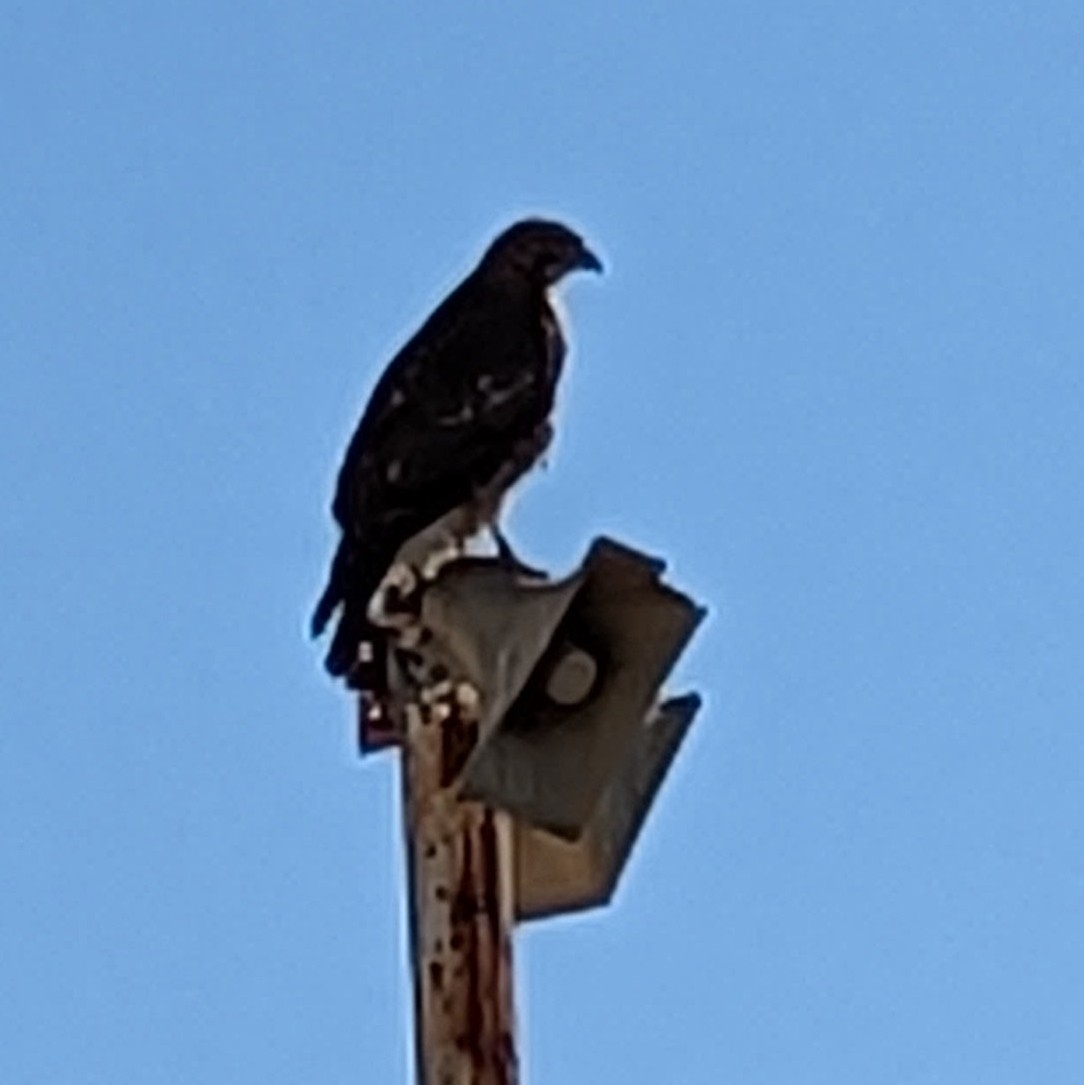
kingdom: Animalia
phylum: Chordata
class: Aves
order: Accipitriformes
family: Accipitridae
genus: Buteo
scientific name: Buteo jamaicensis
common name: Red-tailed hawk
